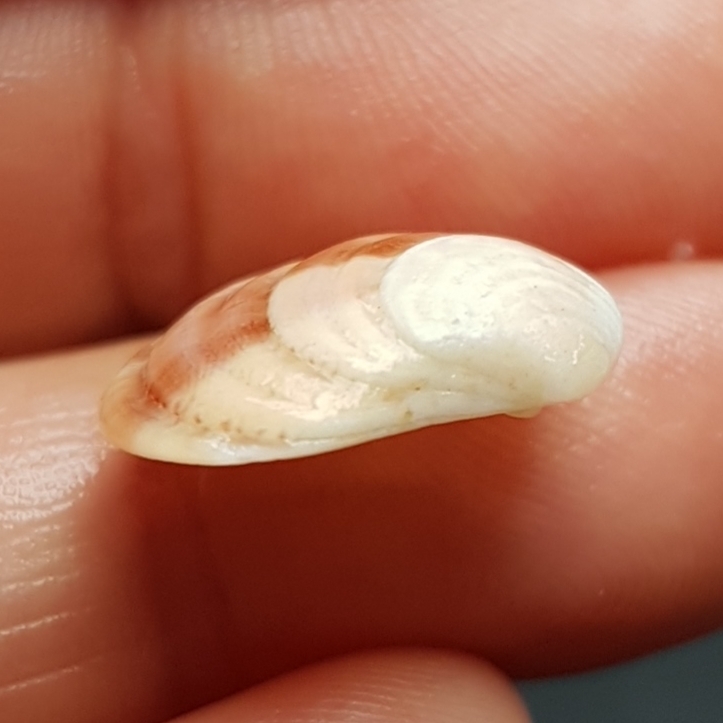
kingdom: Animalia
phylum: Mollusca
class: Bivalvia
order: Venerida
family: Veneridae
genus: Clausinella
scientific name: Clausinella fasciata
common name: Banded venus
